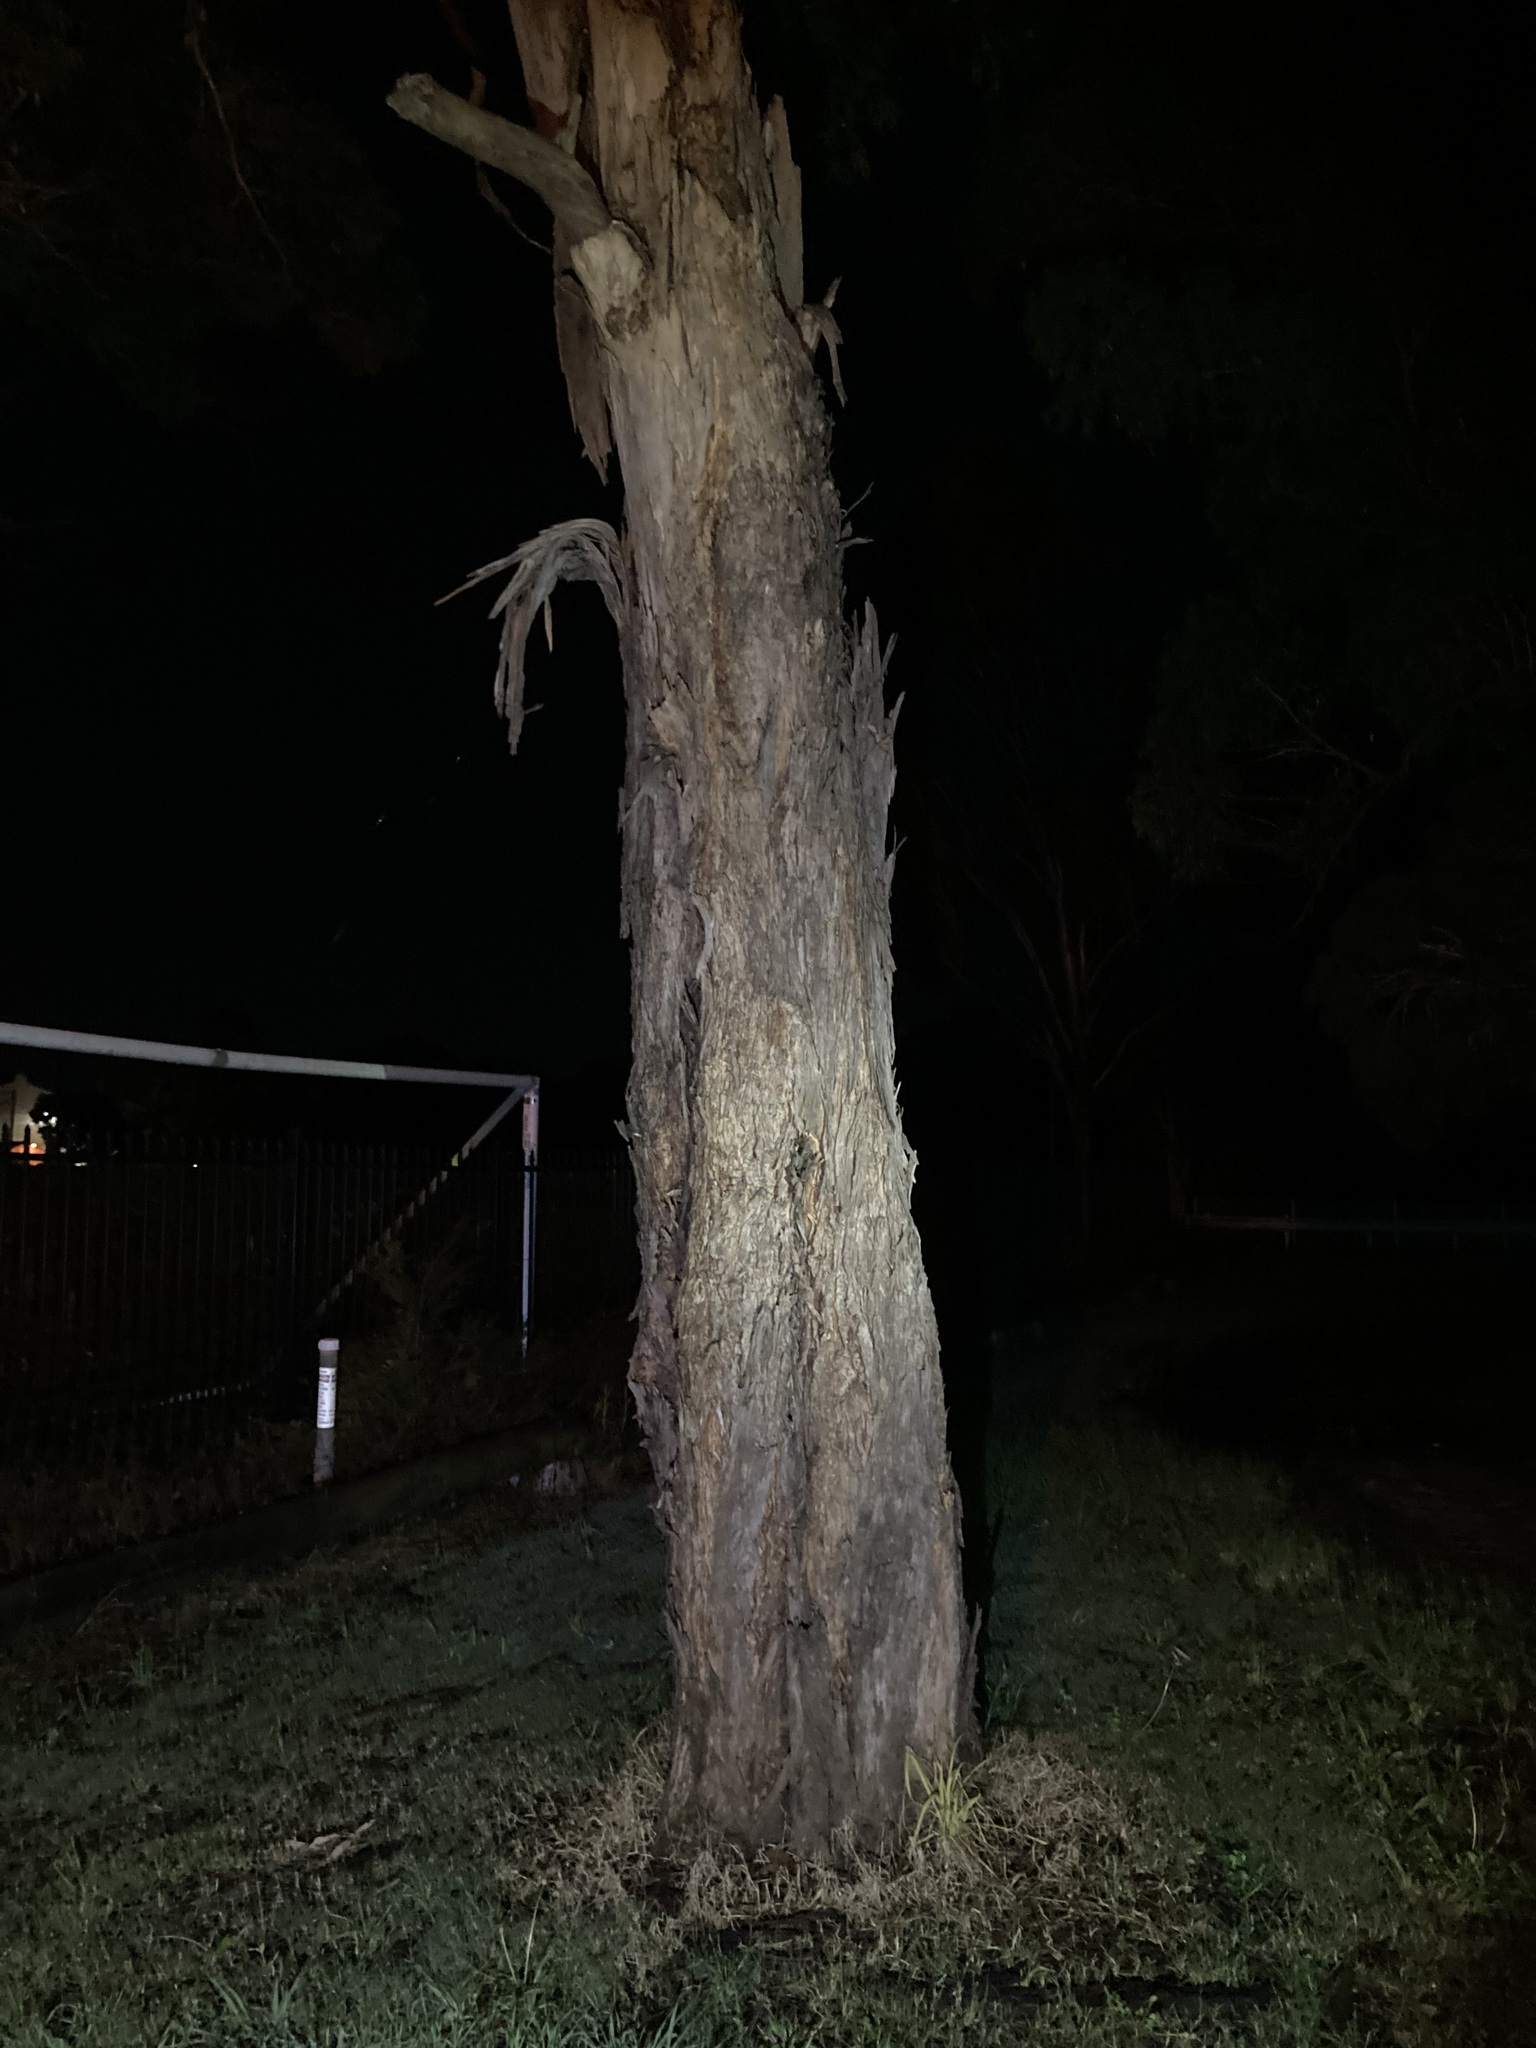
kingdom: Plantae
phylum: Tracheophyta
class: Magnoliopsida
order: Myrtales
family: Myrtaceae
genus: Eucalyptus
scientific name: Eucalyptus longifolia
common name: Woollybutt
